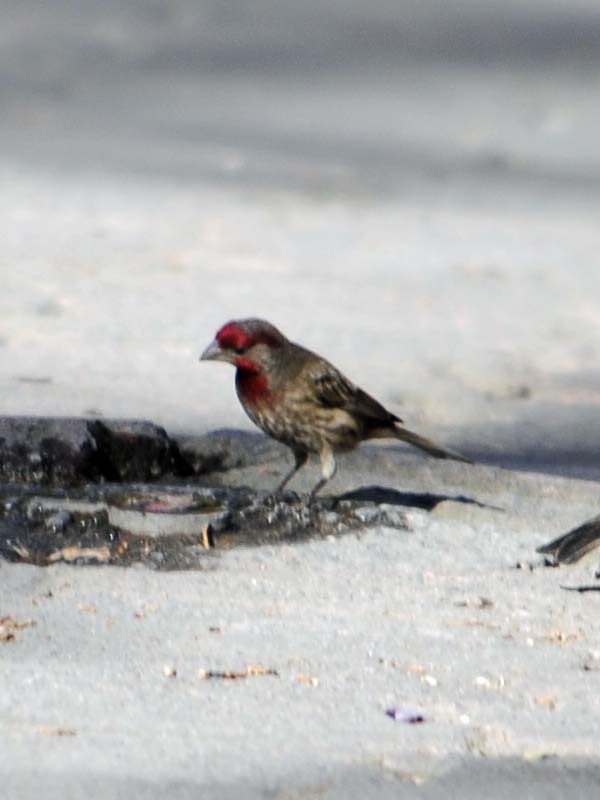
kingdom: Animalia
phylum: Chordata
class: Aves
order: Passeriformes
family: Fringillidae
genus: Haemorhous
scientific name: Haemorhous mexicanus
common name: House finch
